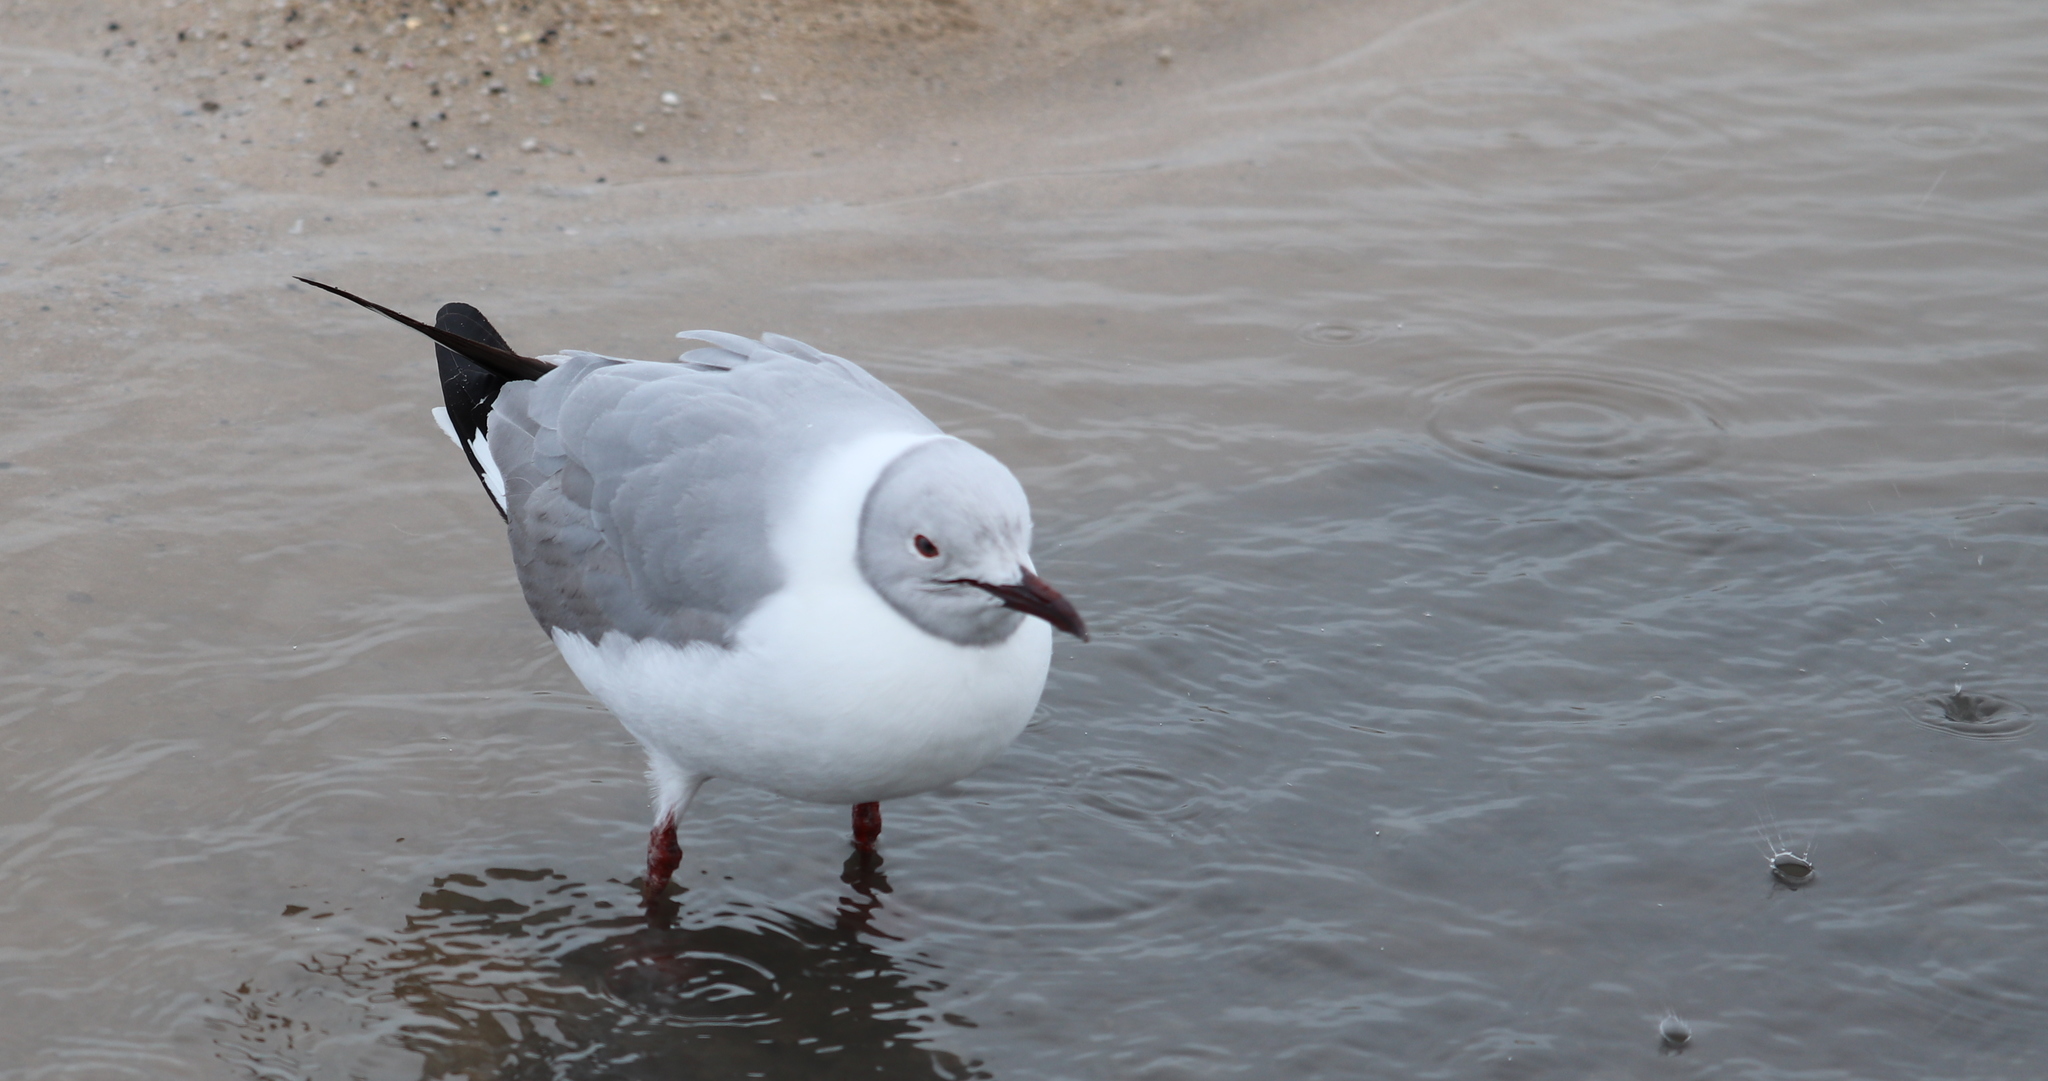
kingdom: Animalia
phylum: Chordata
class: Aves
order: Charadriiformes
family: Laridae
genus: Chroicocephalus
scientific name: Chroicocephalus cirrocephalus
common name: Grey-headed gull
